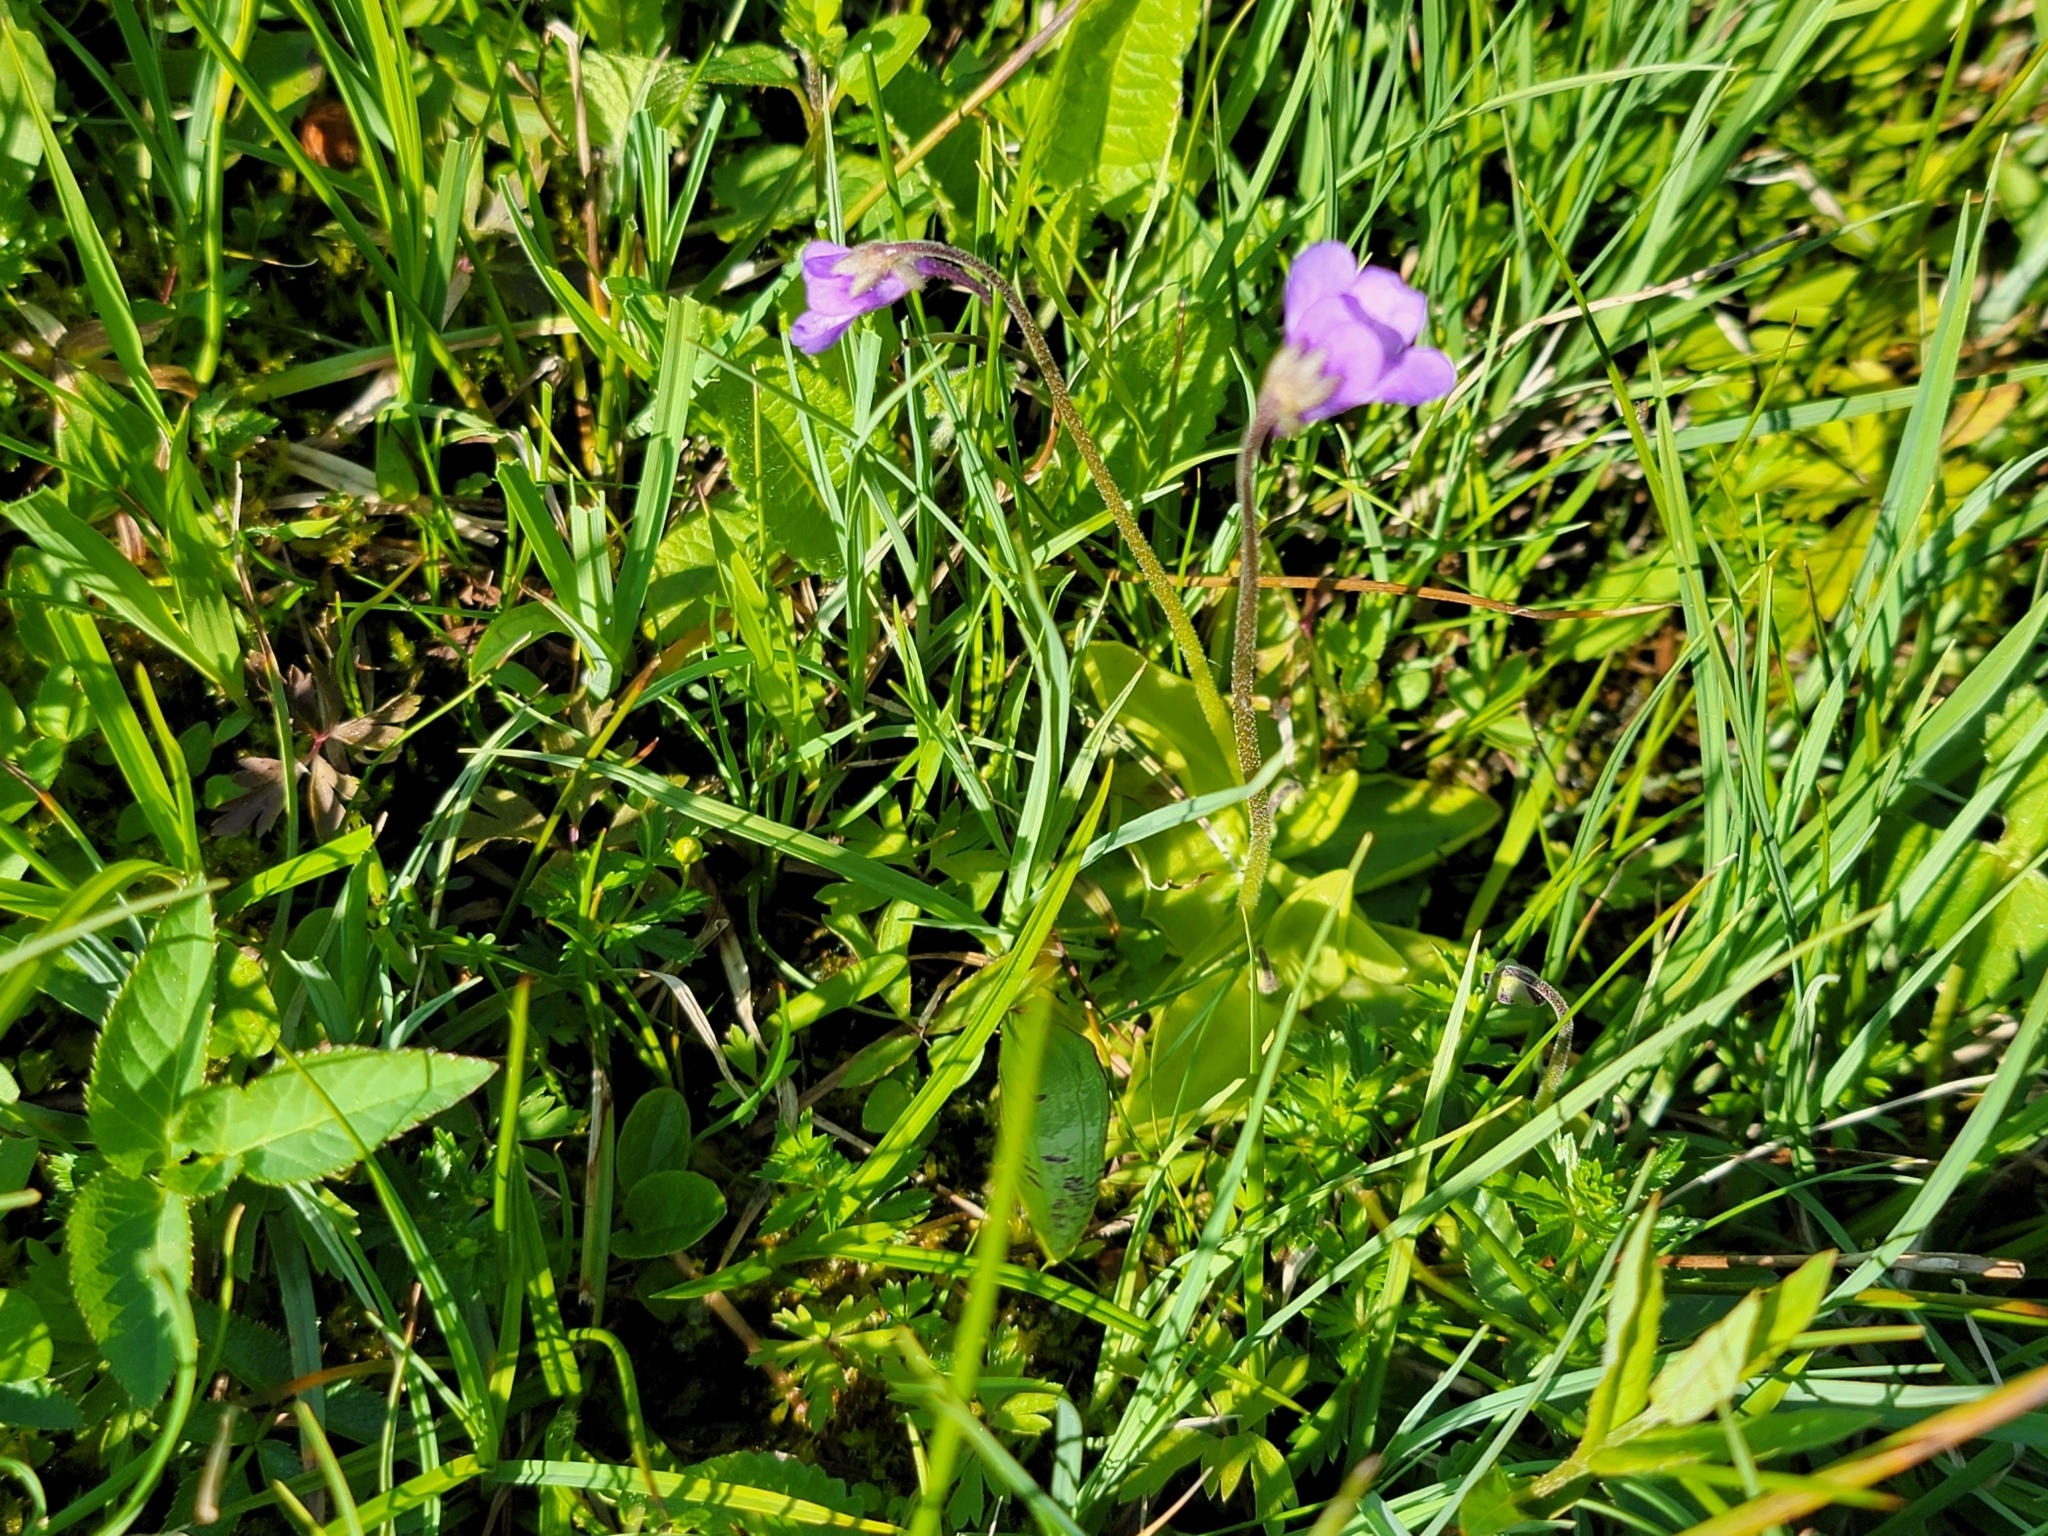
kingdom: Plantae
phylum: Tracheophyta
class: Magnoliopsida
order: Lamiales
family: Lentibulariaceae
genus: Pinguicula
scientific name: Pinguicula vulgaris
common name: Common butterwort
